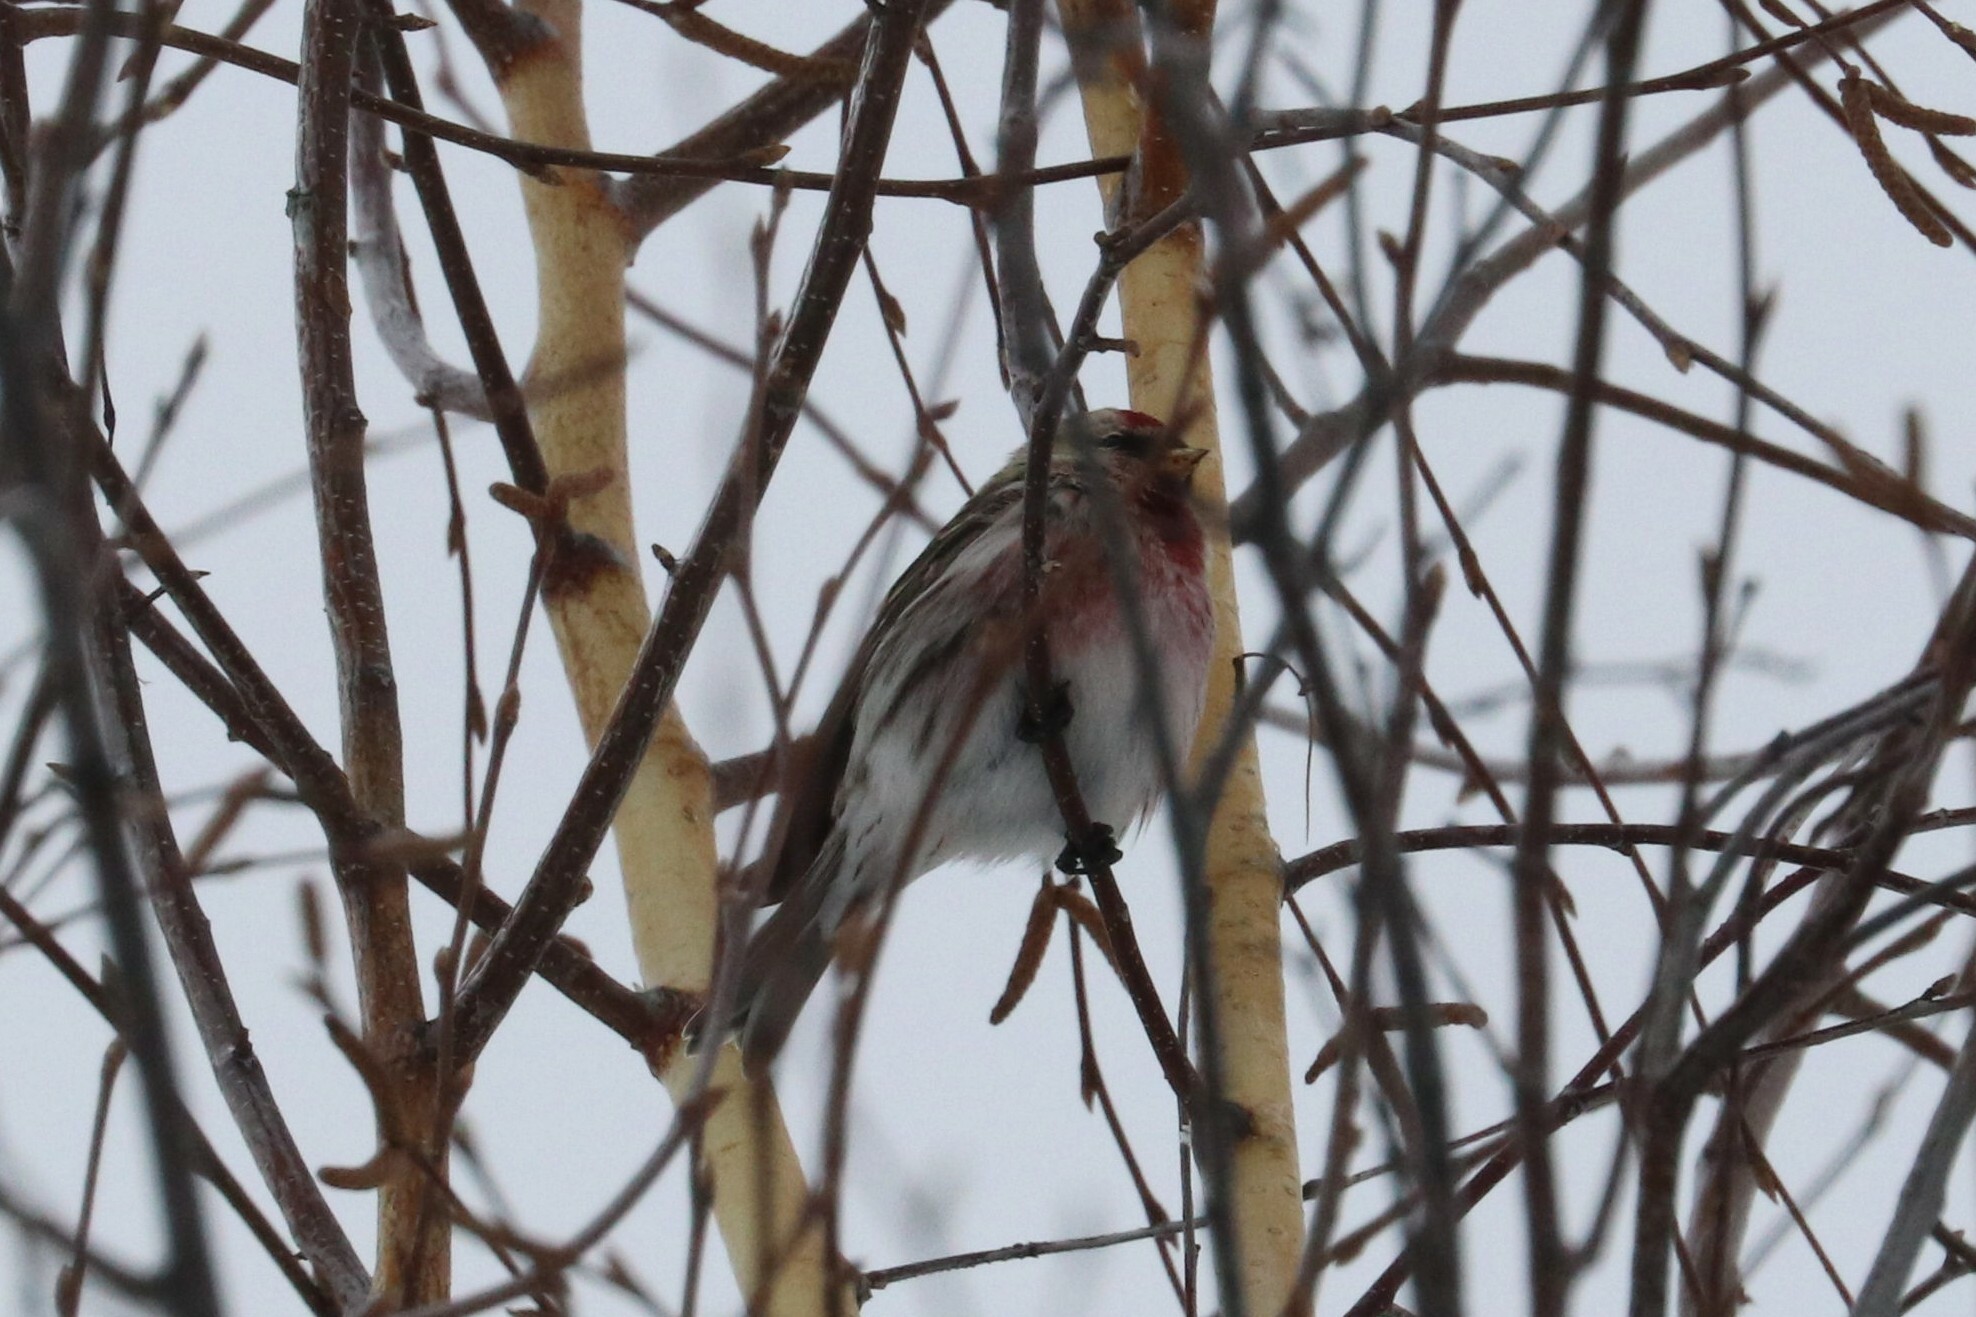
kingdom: Animalia
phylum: Chordata
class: Aves
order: Passeriformes
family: Fringillidae
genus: Acanthis
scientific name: Acanthis flammea
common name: Common redpoll
